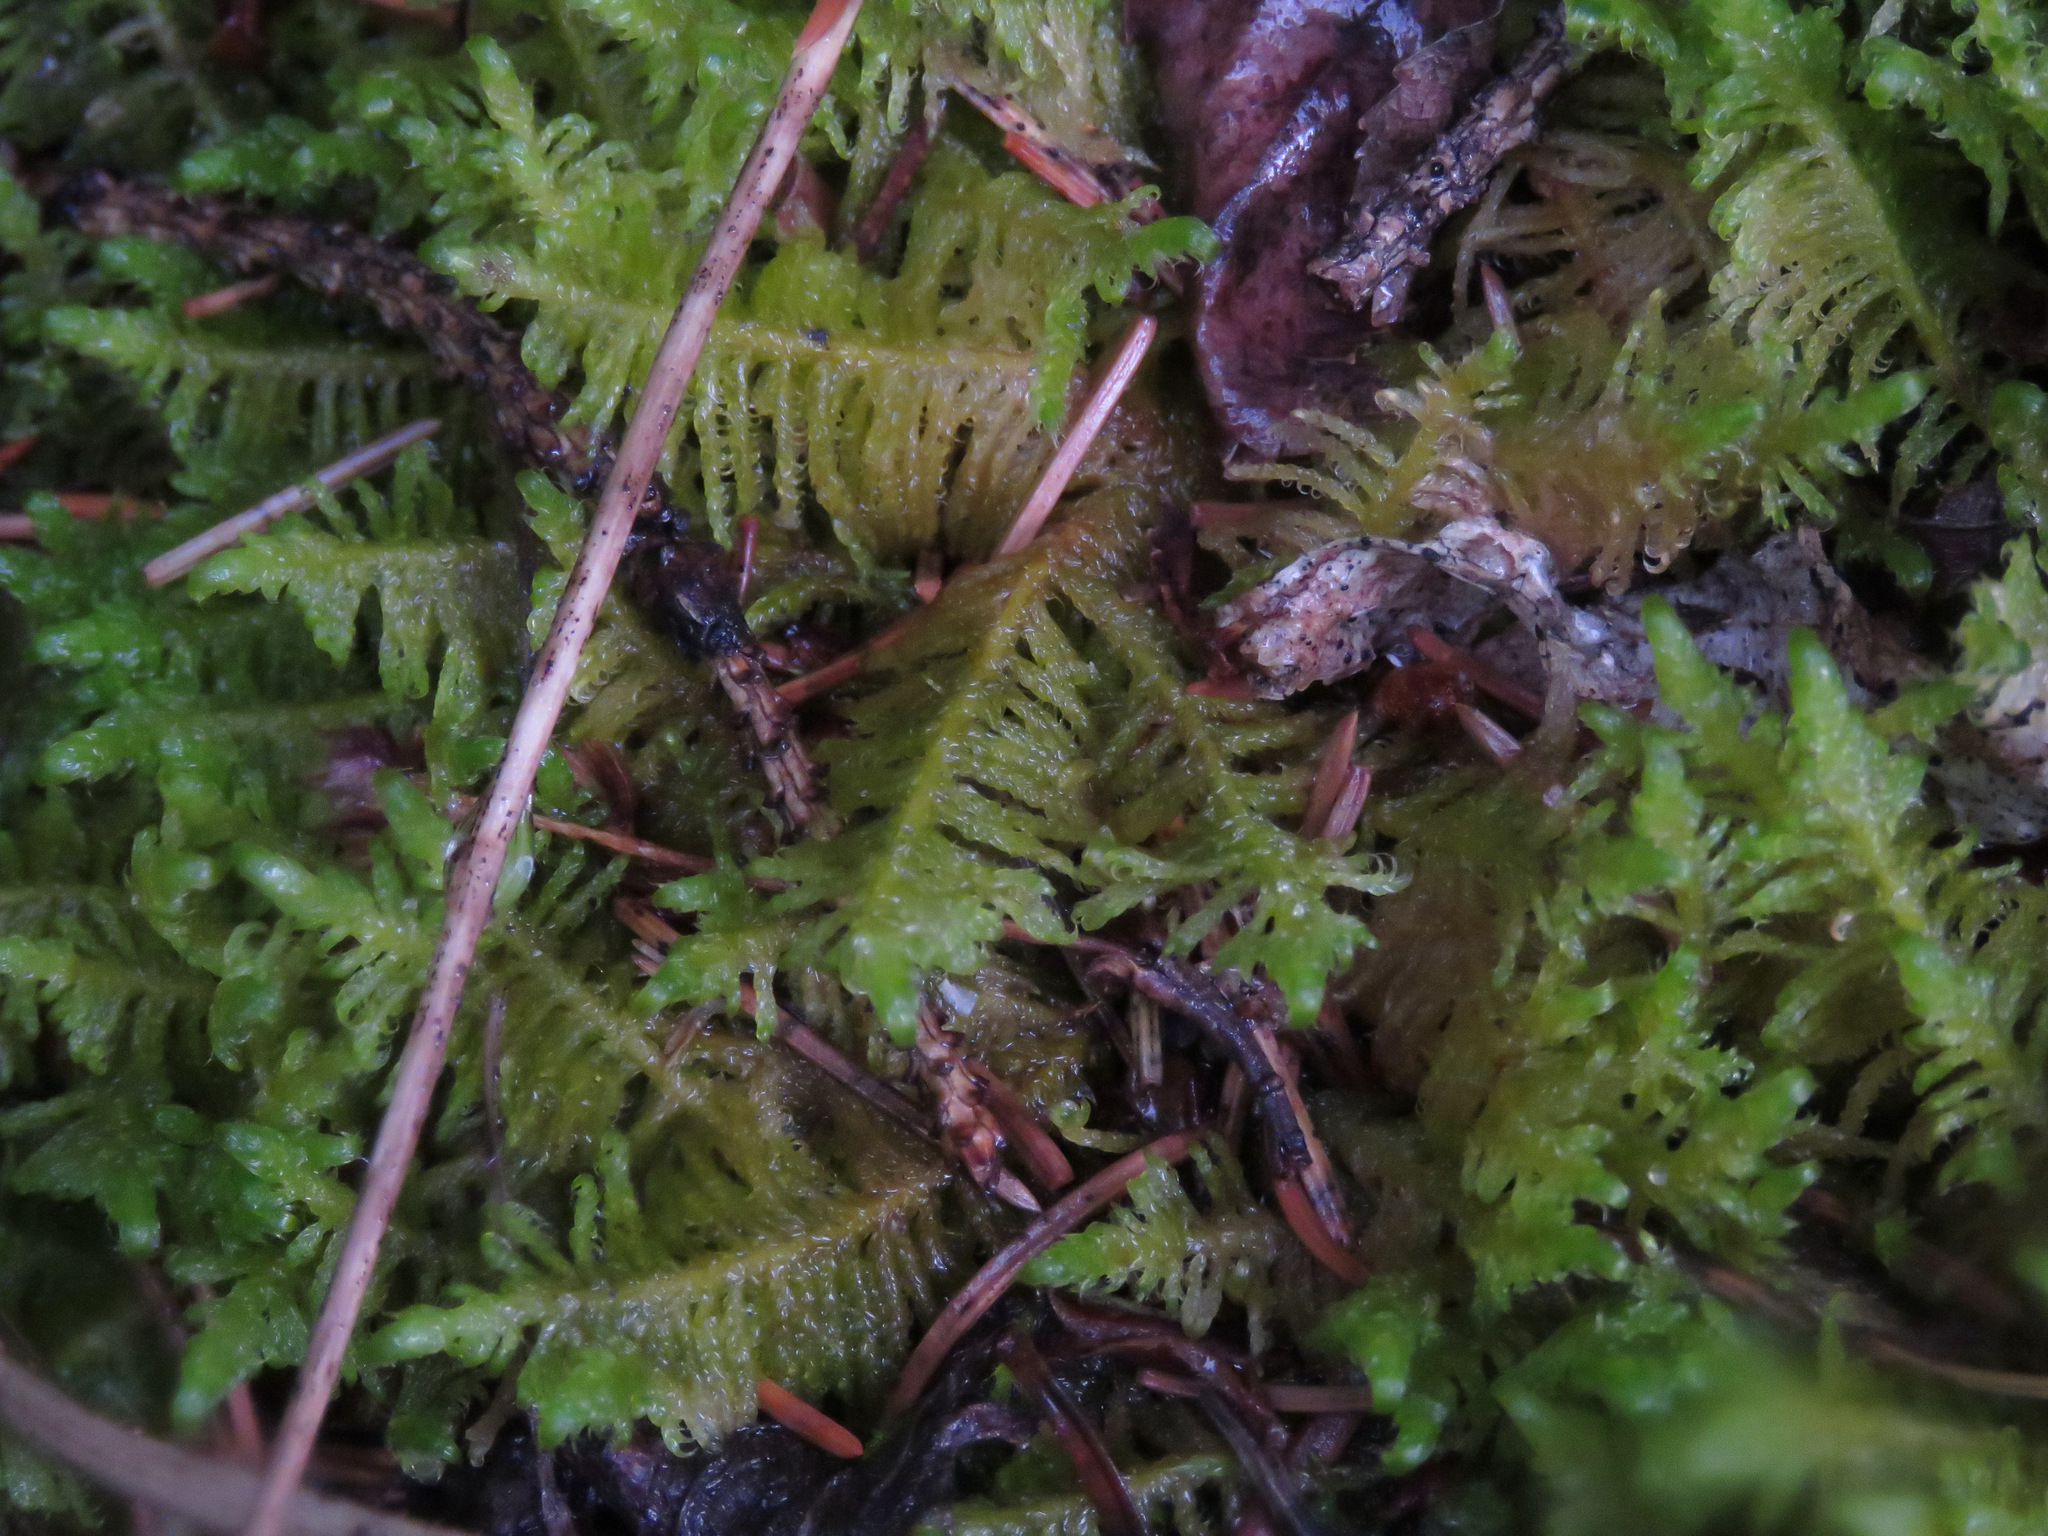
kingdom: Plantae
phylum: Bryophyta
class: Bryopsida
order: Hypnales
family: Pylaisiaceae
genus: Ptilium
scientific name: Ptilium crista-castrensis
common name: Knight's plume moss
